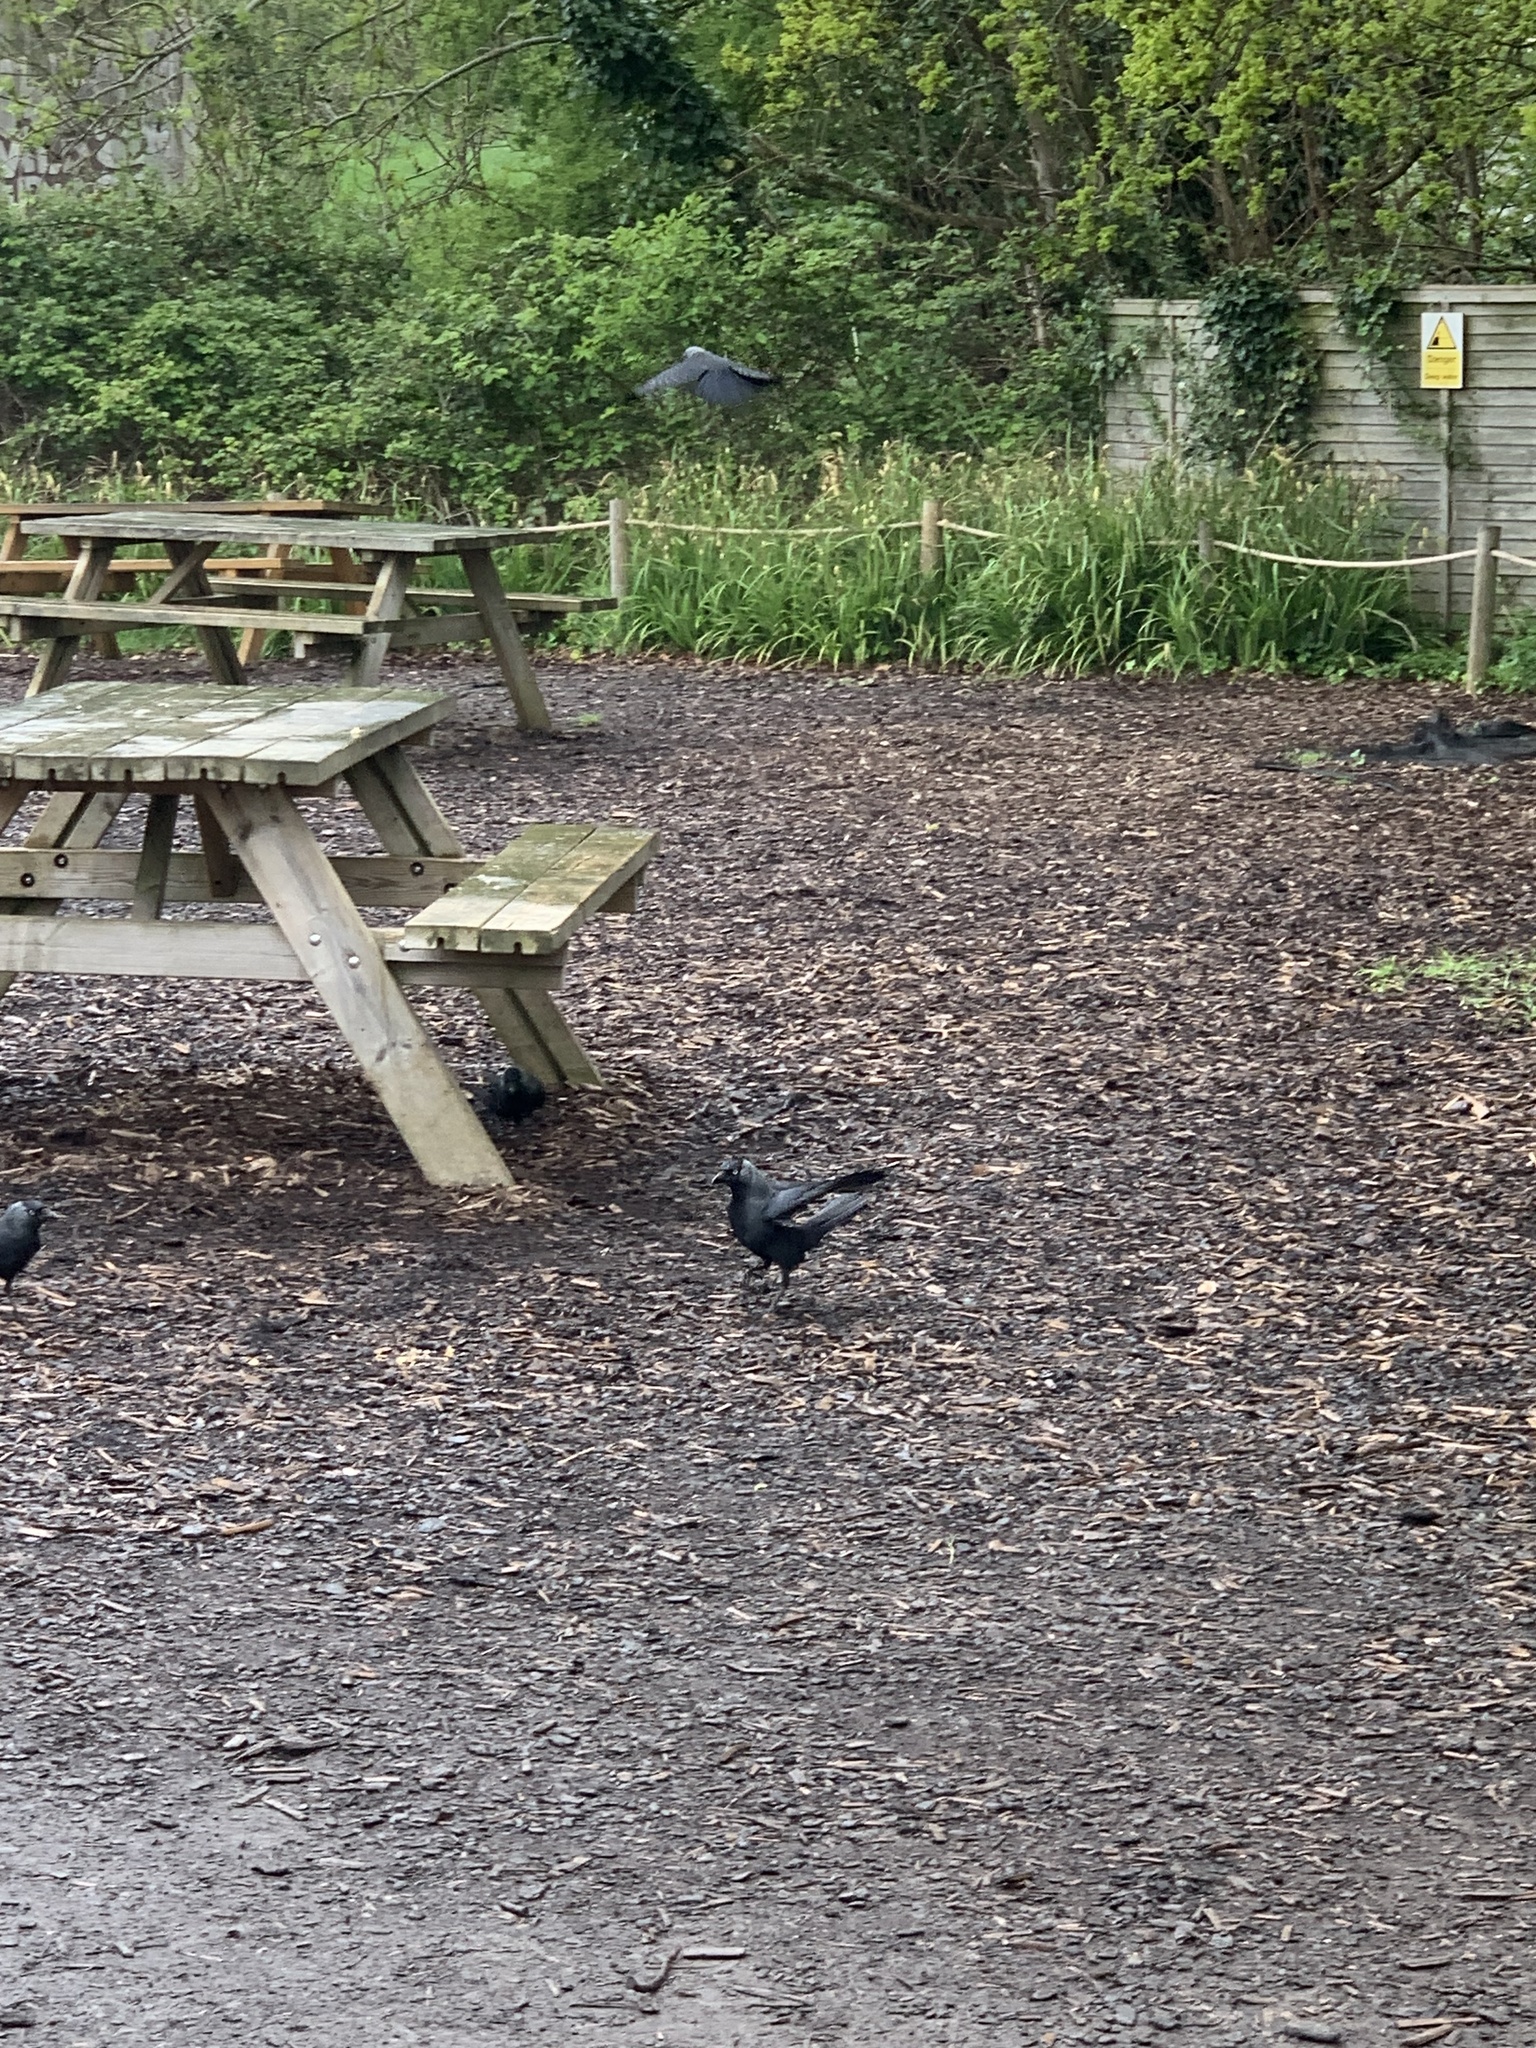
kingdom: Animalia
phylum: Chordata
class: Aves
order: Passeriformes
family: Corvidae
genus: Coloeus
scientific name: Coloeus monedula
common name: Western jackdaw
